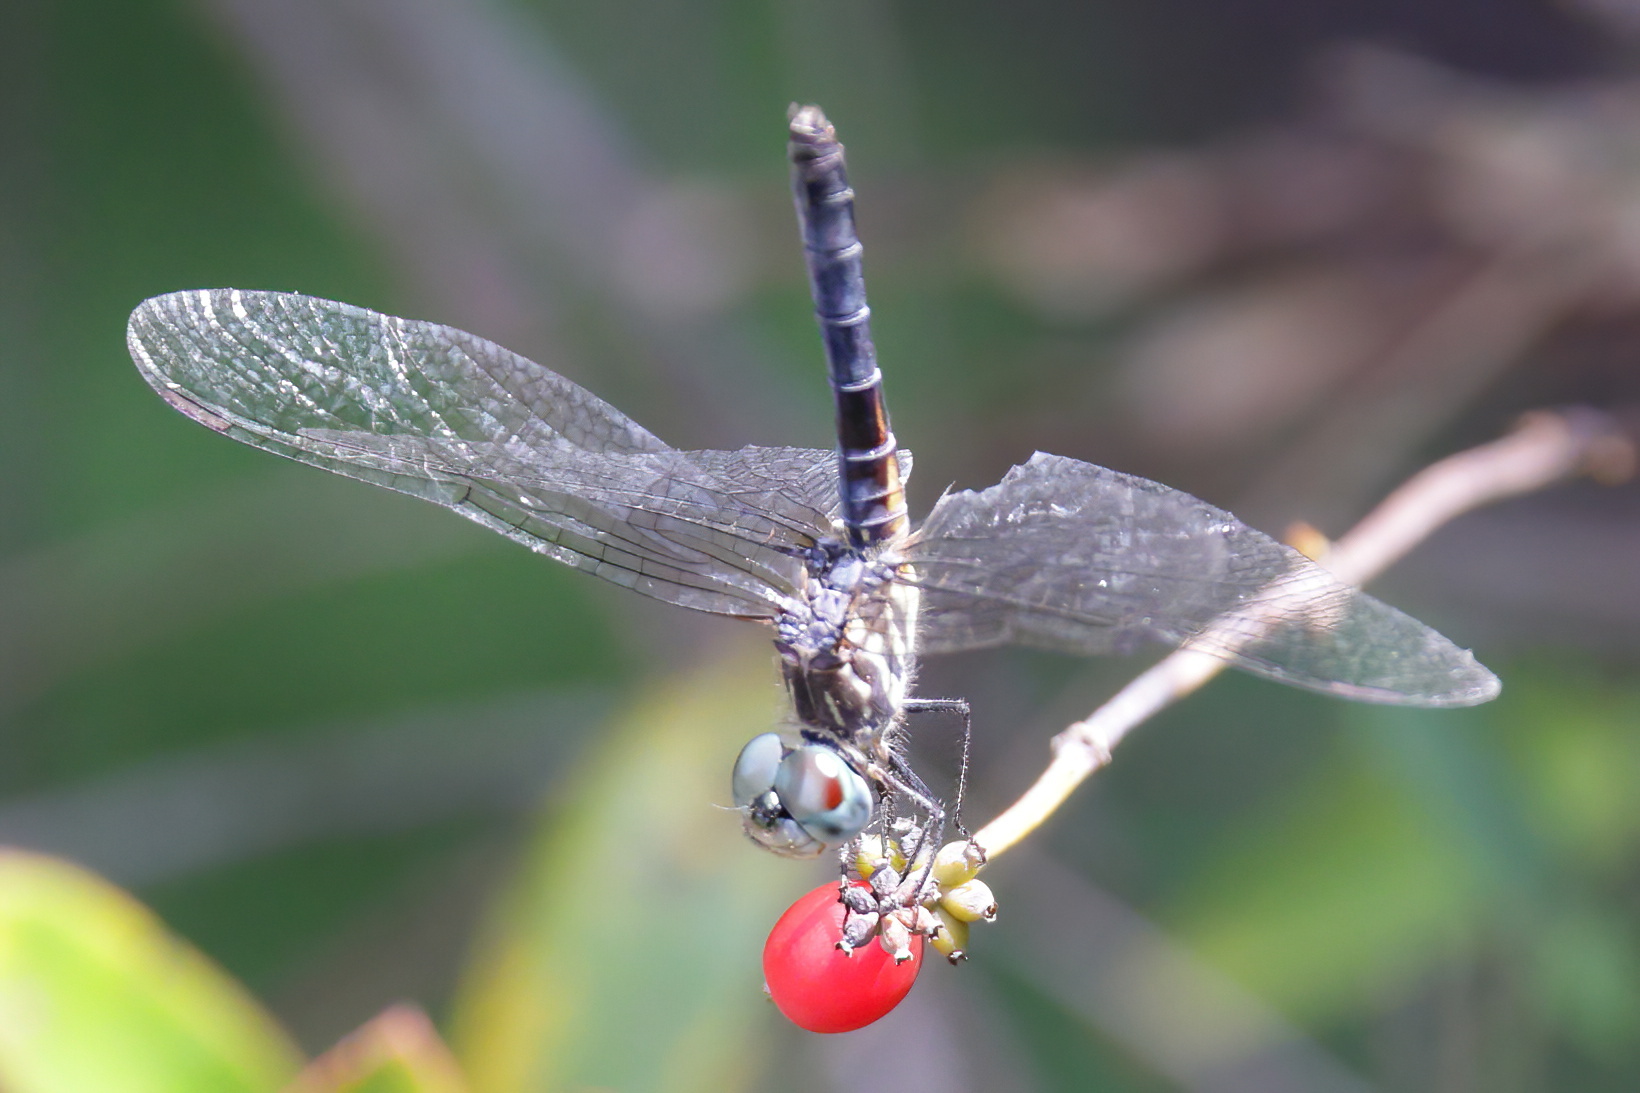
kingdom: Animalia
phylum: Arthropoda
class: Insecta
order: Odonata
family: Libellulidae
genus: Pachydiplax
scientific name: Pachydiplax longipennis
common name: Blue dasher
